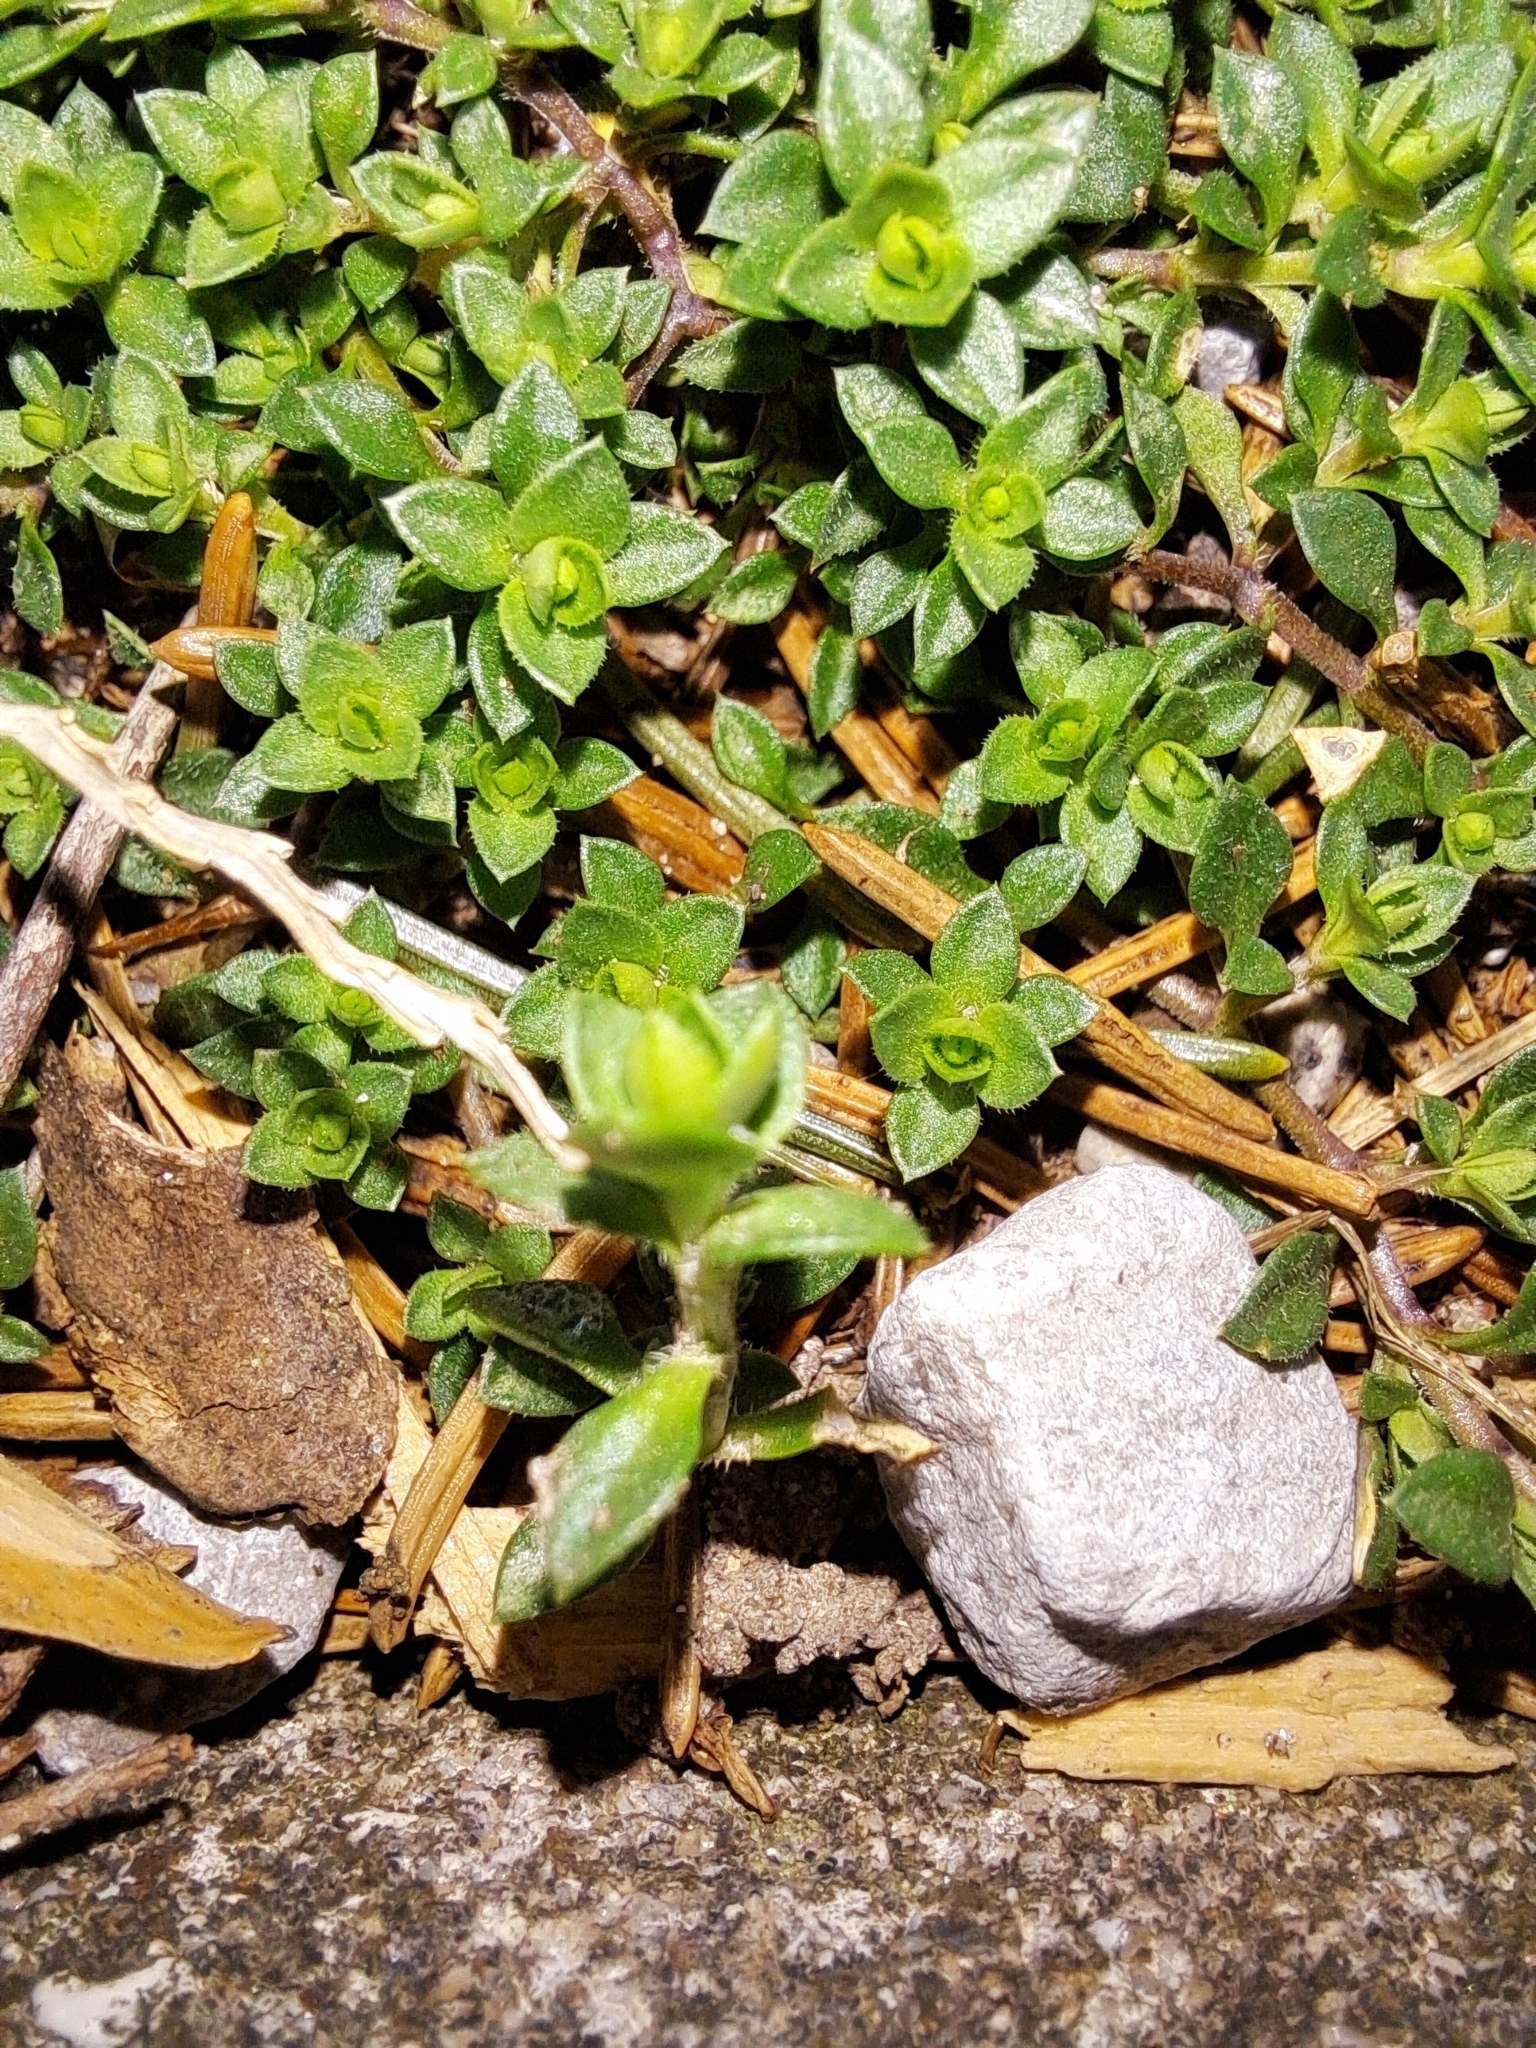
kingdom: Plantae
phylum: Tracheophyta
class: Magnoliopsida
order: Caryophyllales
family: Caryophyllaceae
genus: Arenaria
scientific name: Arenaria serpyllifolia
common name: Thyme-leaved sandwort
